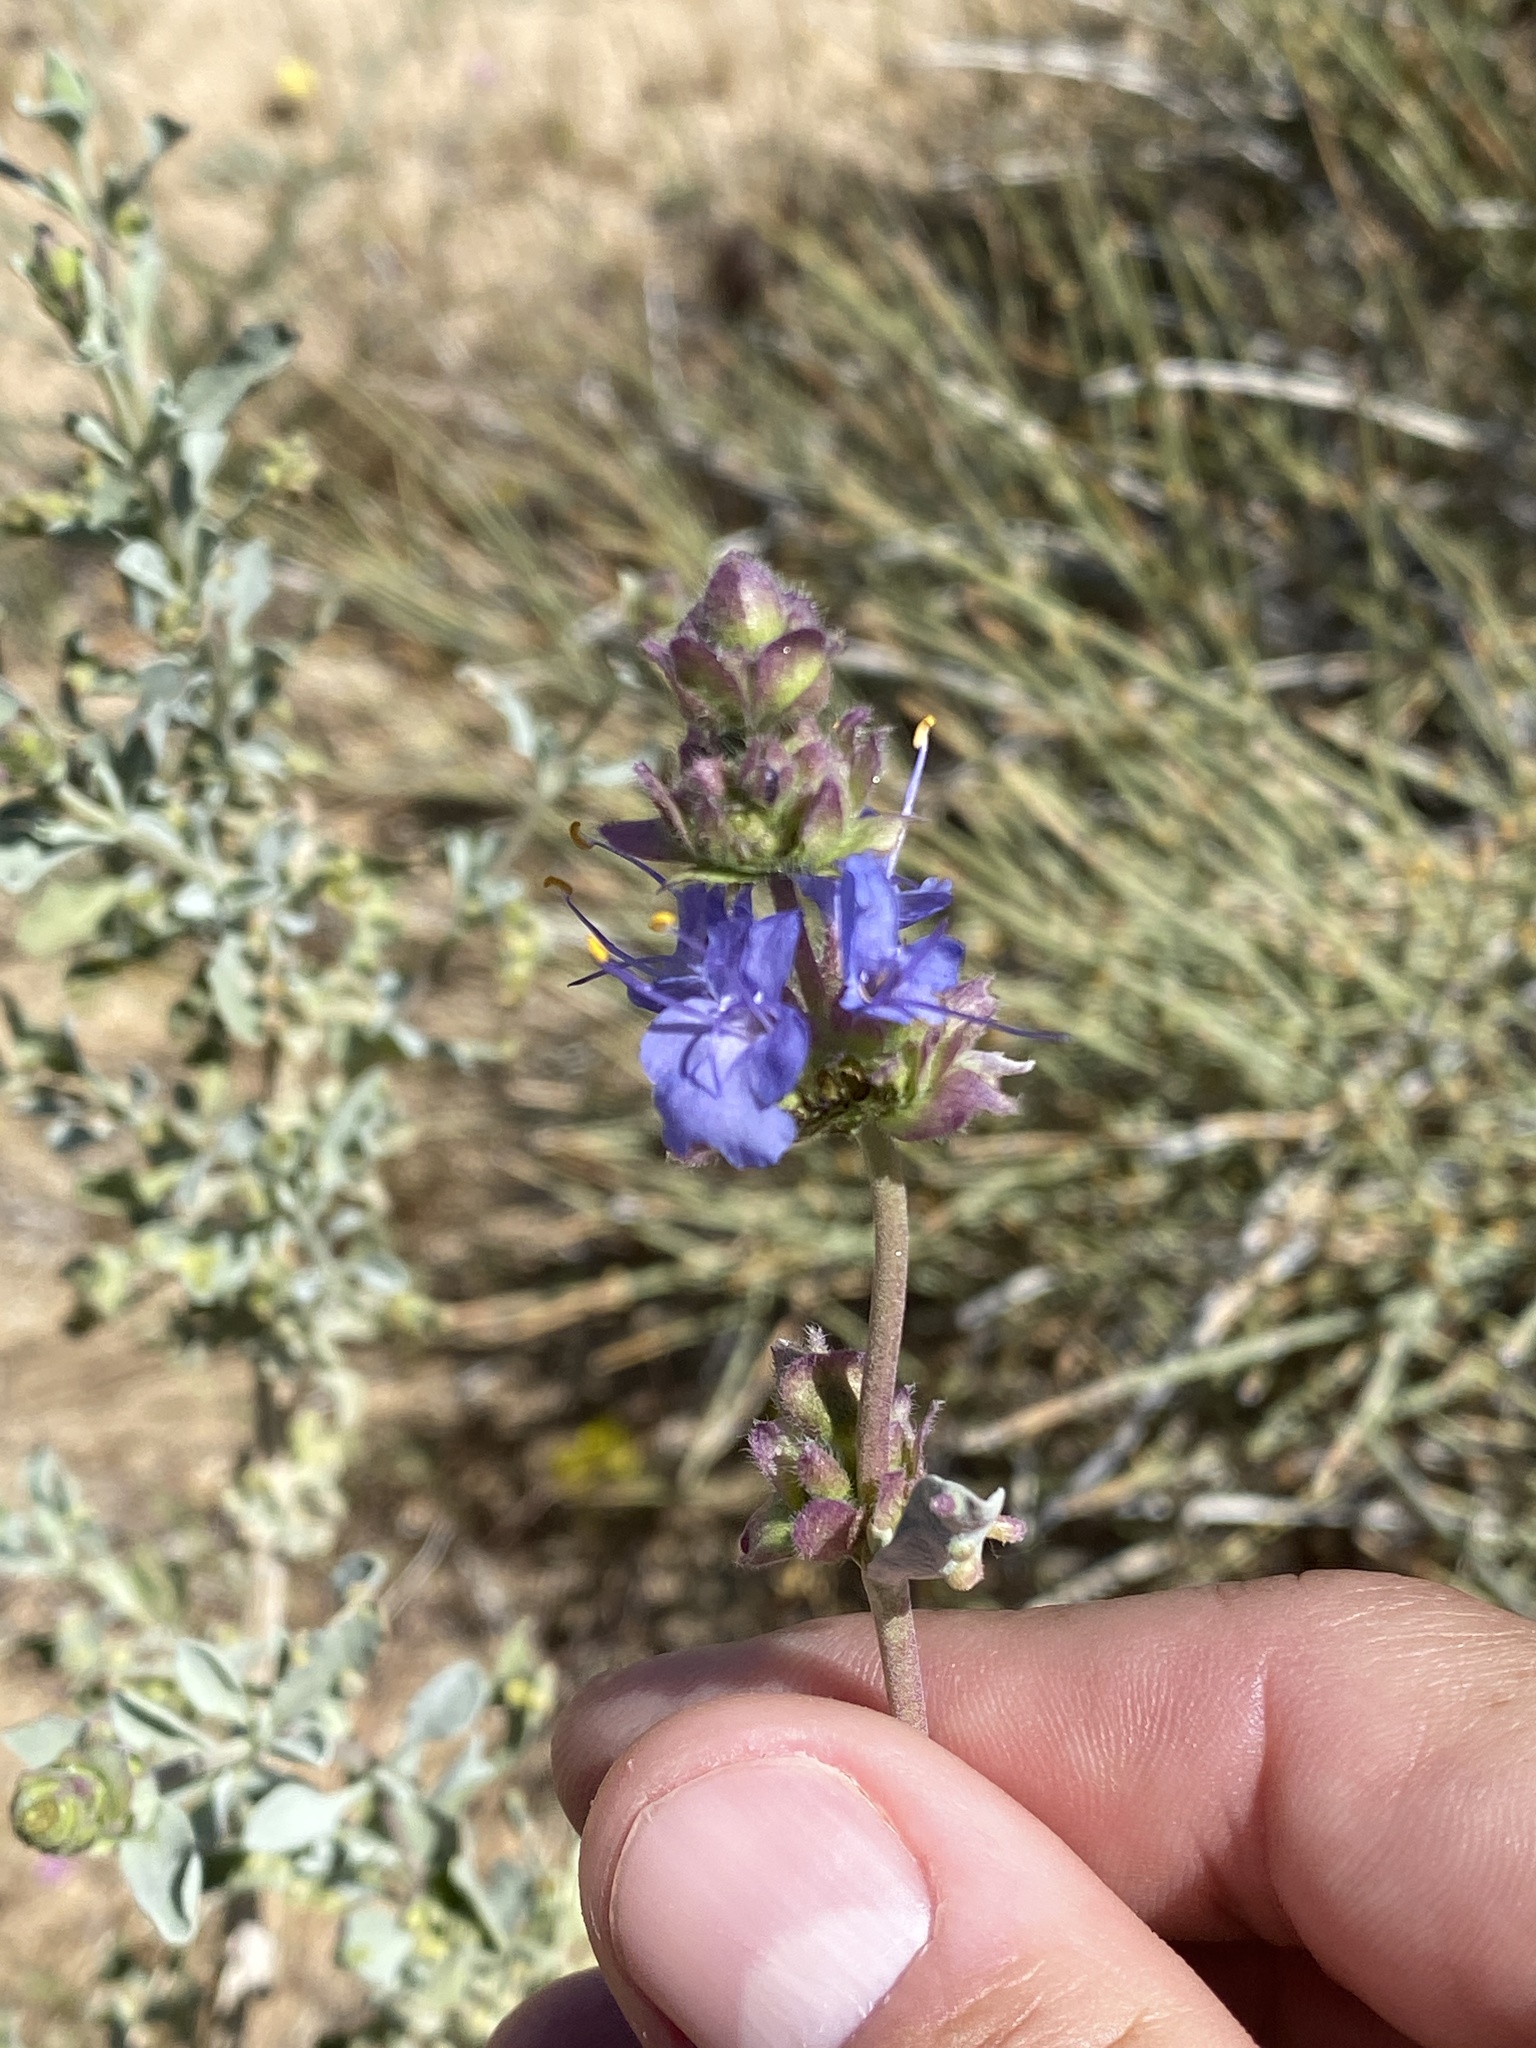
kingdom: Plantae
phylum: Tracheophyta
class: Magnoliopsida
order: Lamiales
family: Lamiaceae
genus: Salvia
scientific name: Salvia dorrii
